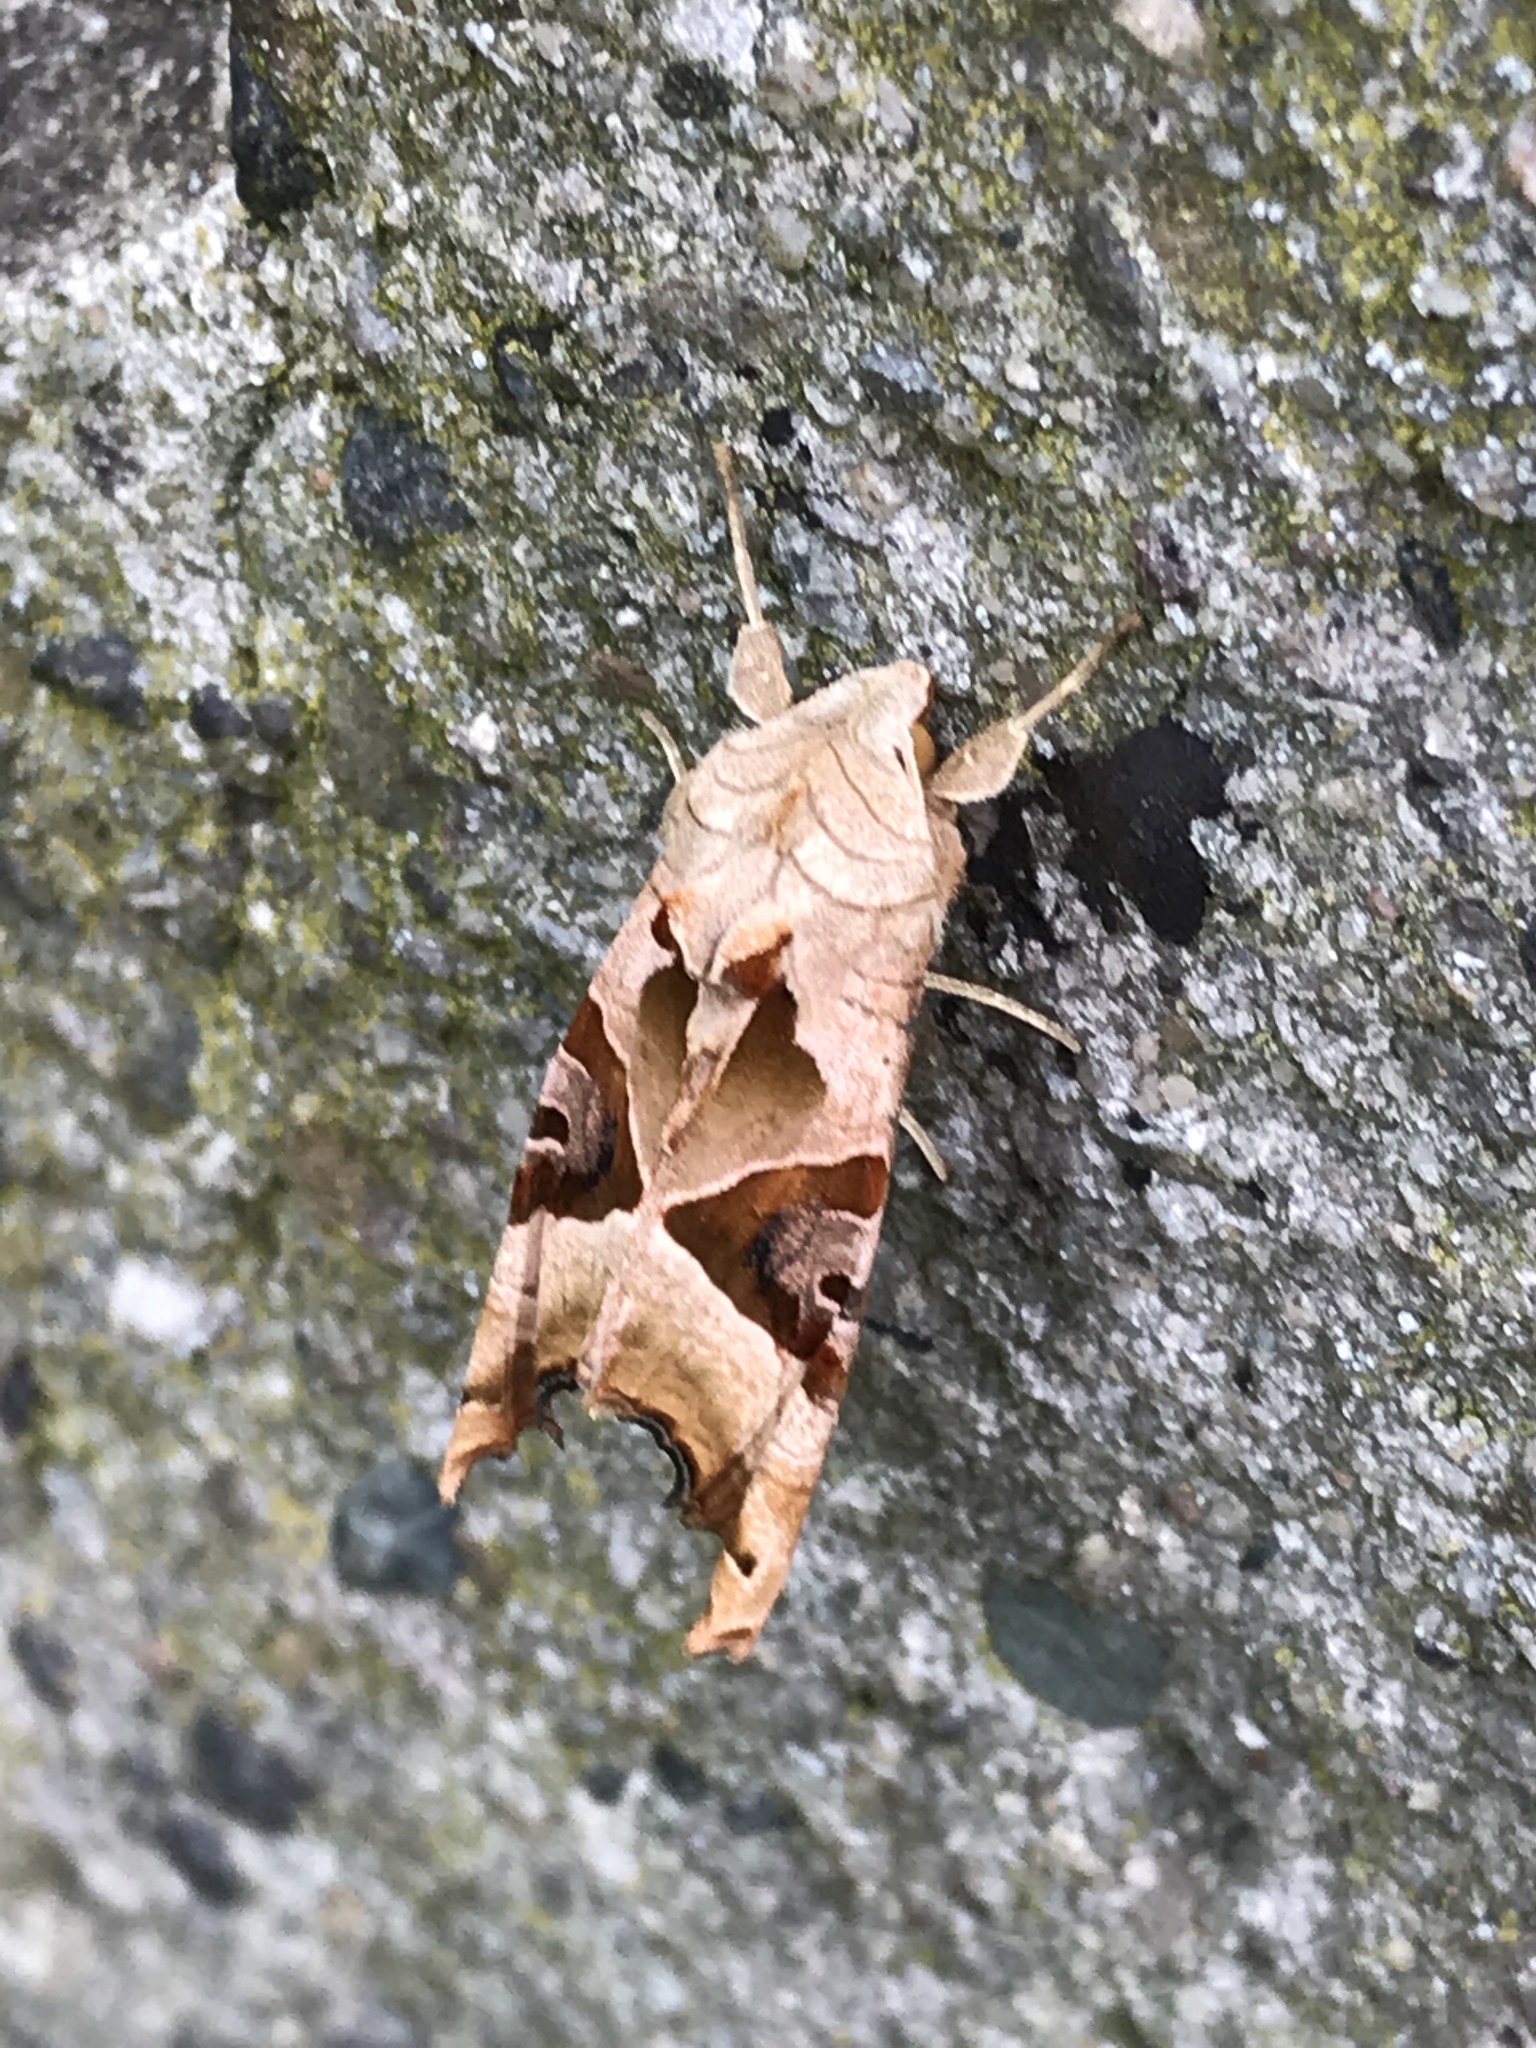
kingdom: Animalia
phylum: Arthropoda
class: Insecta
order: Lepidoptera
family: Noctuidae
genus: Phlogophora
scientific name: Phlogophora meticulosa
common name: Angle shades
